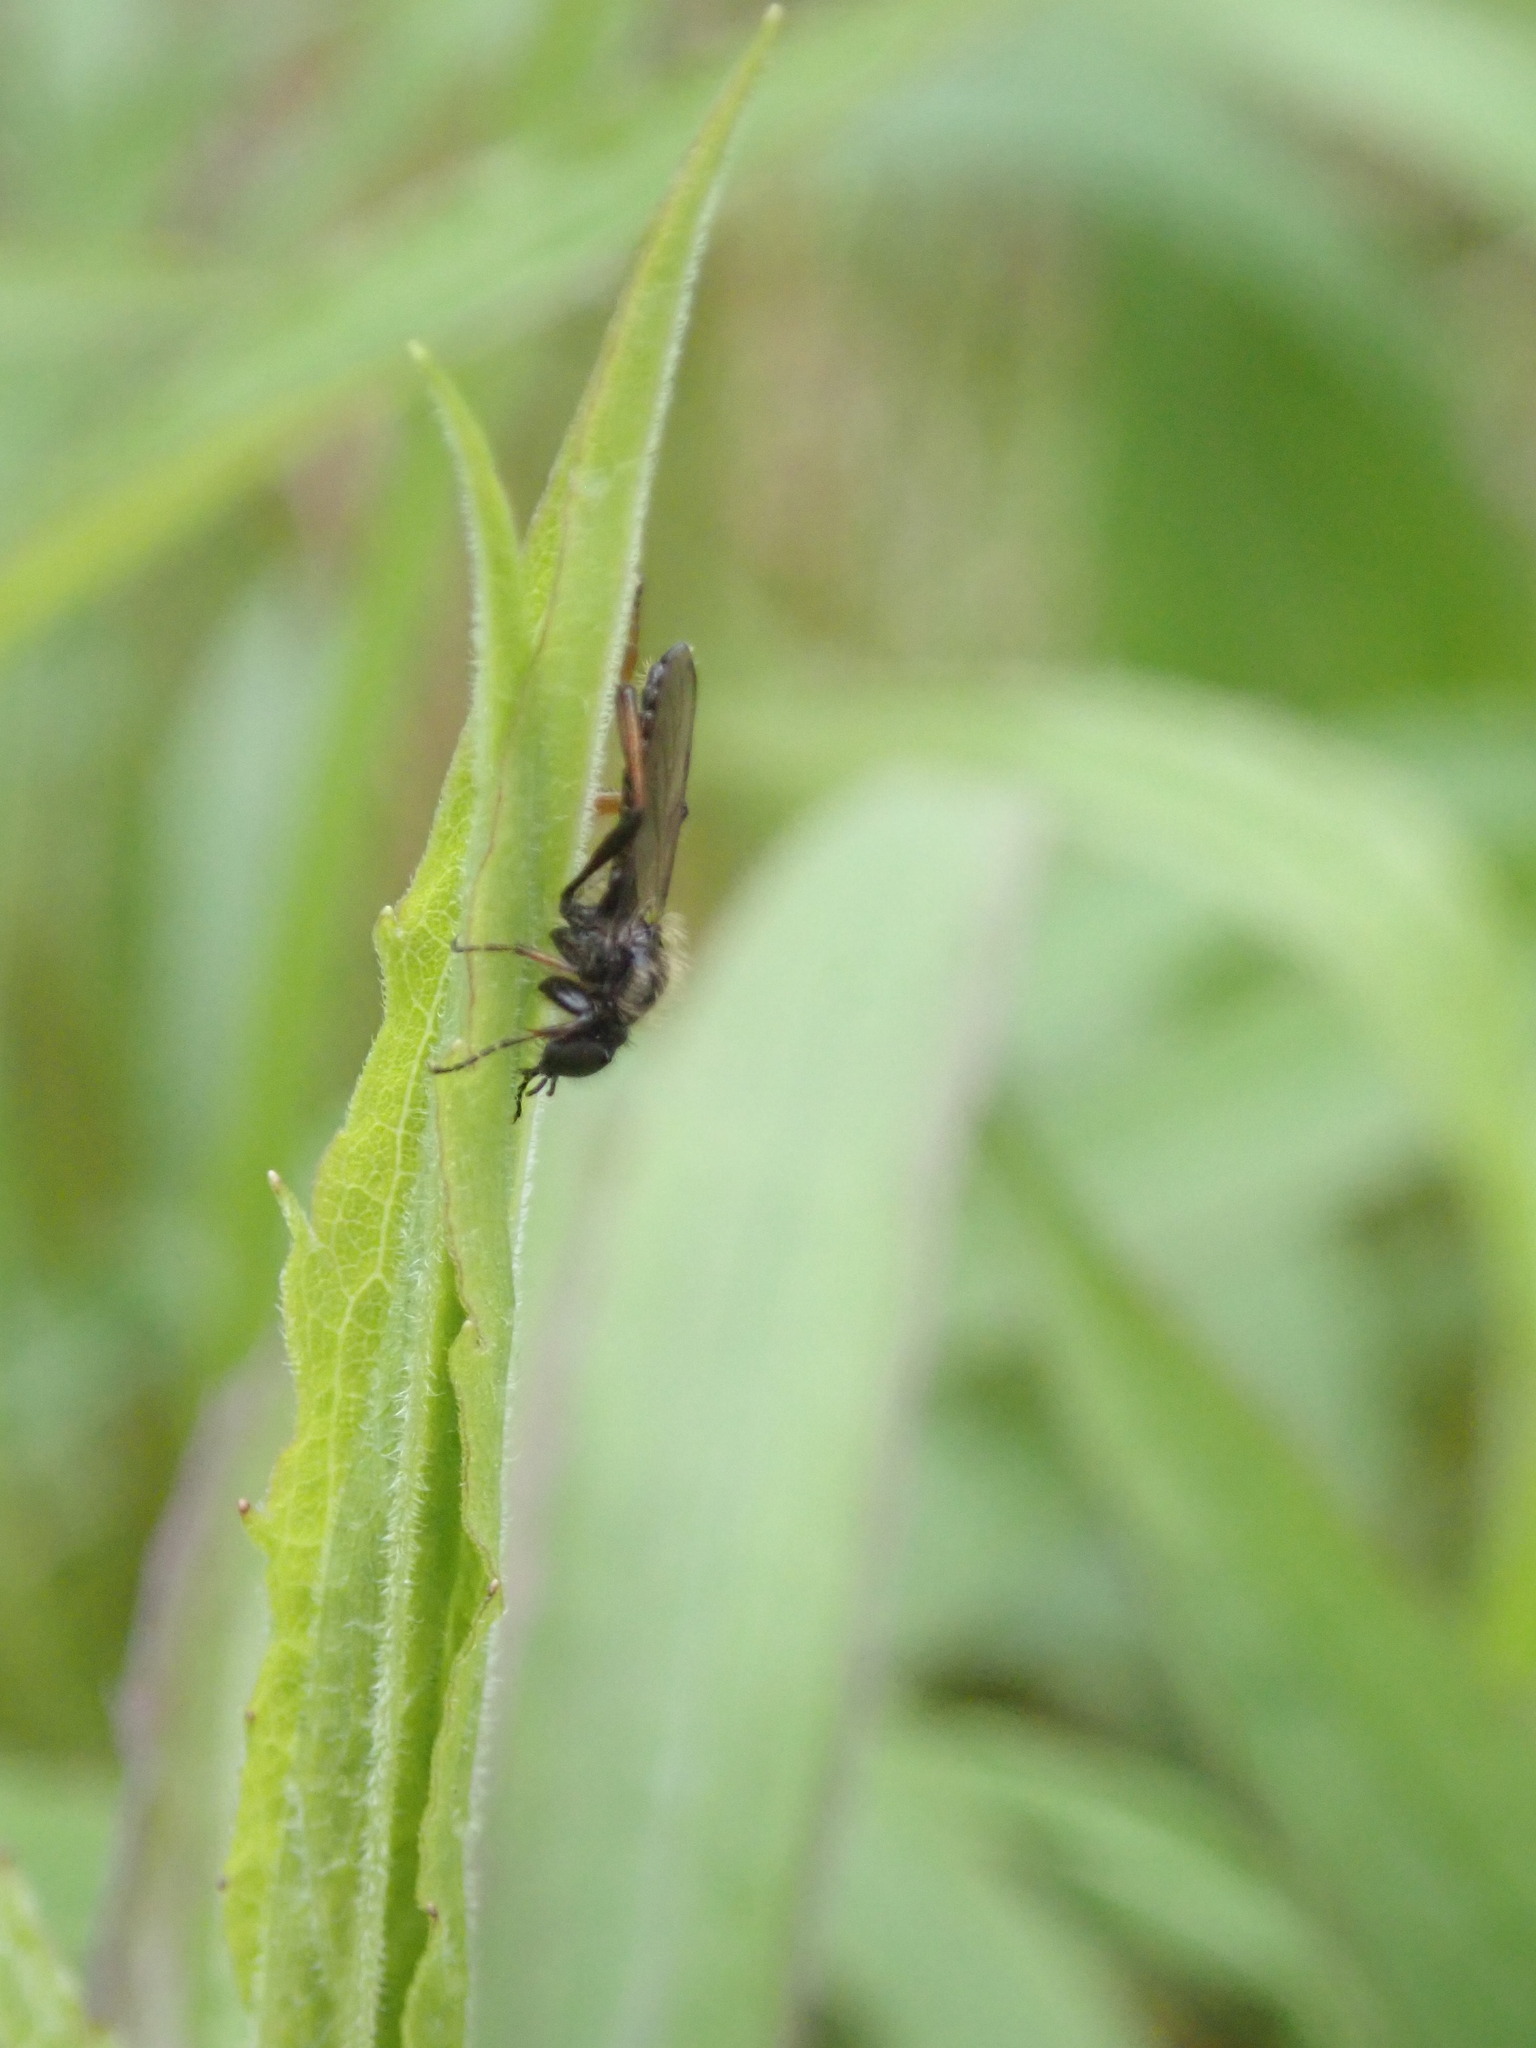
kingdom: Animalia
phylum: Arthropoda
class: Insecta
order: Diptera
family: Bibionidae
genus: Bibio
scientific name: Bibio lanigerus
